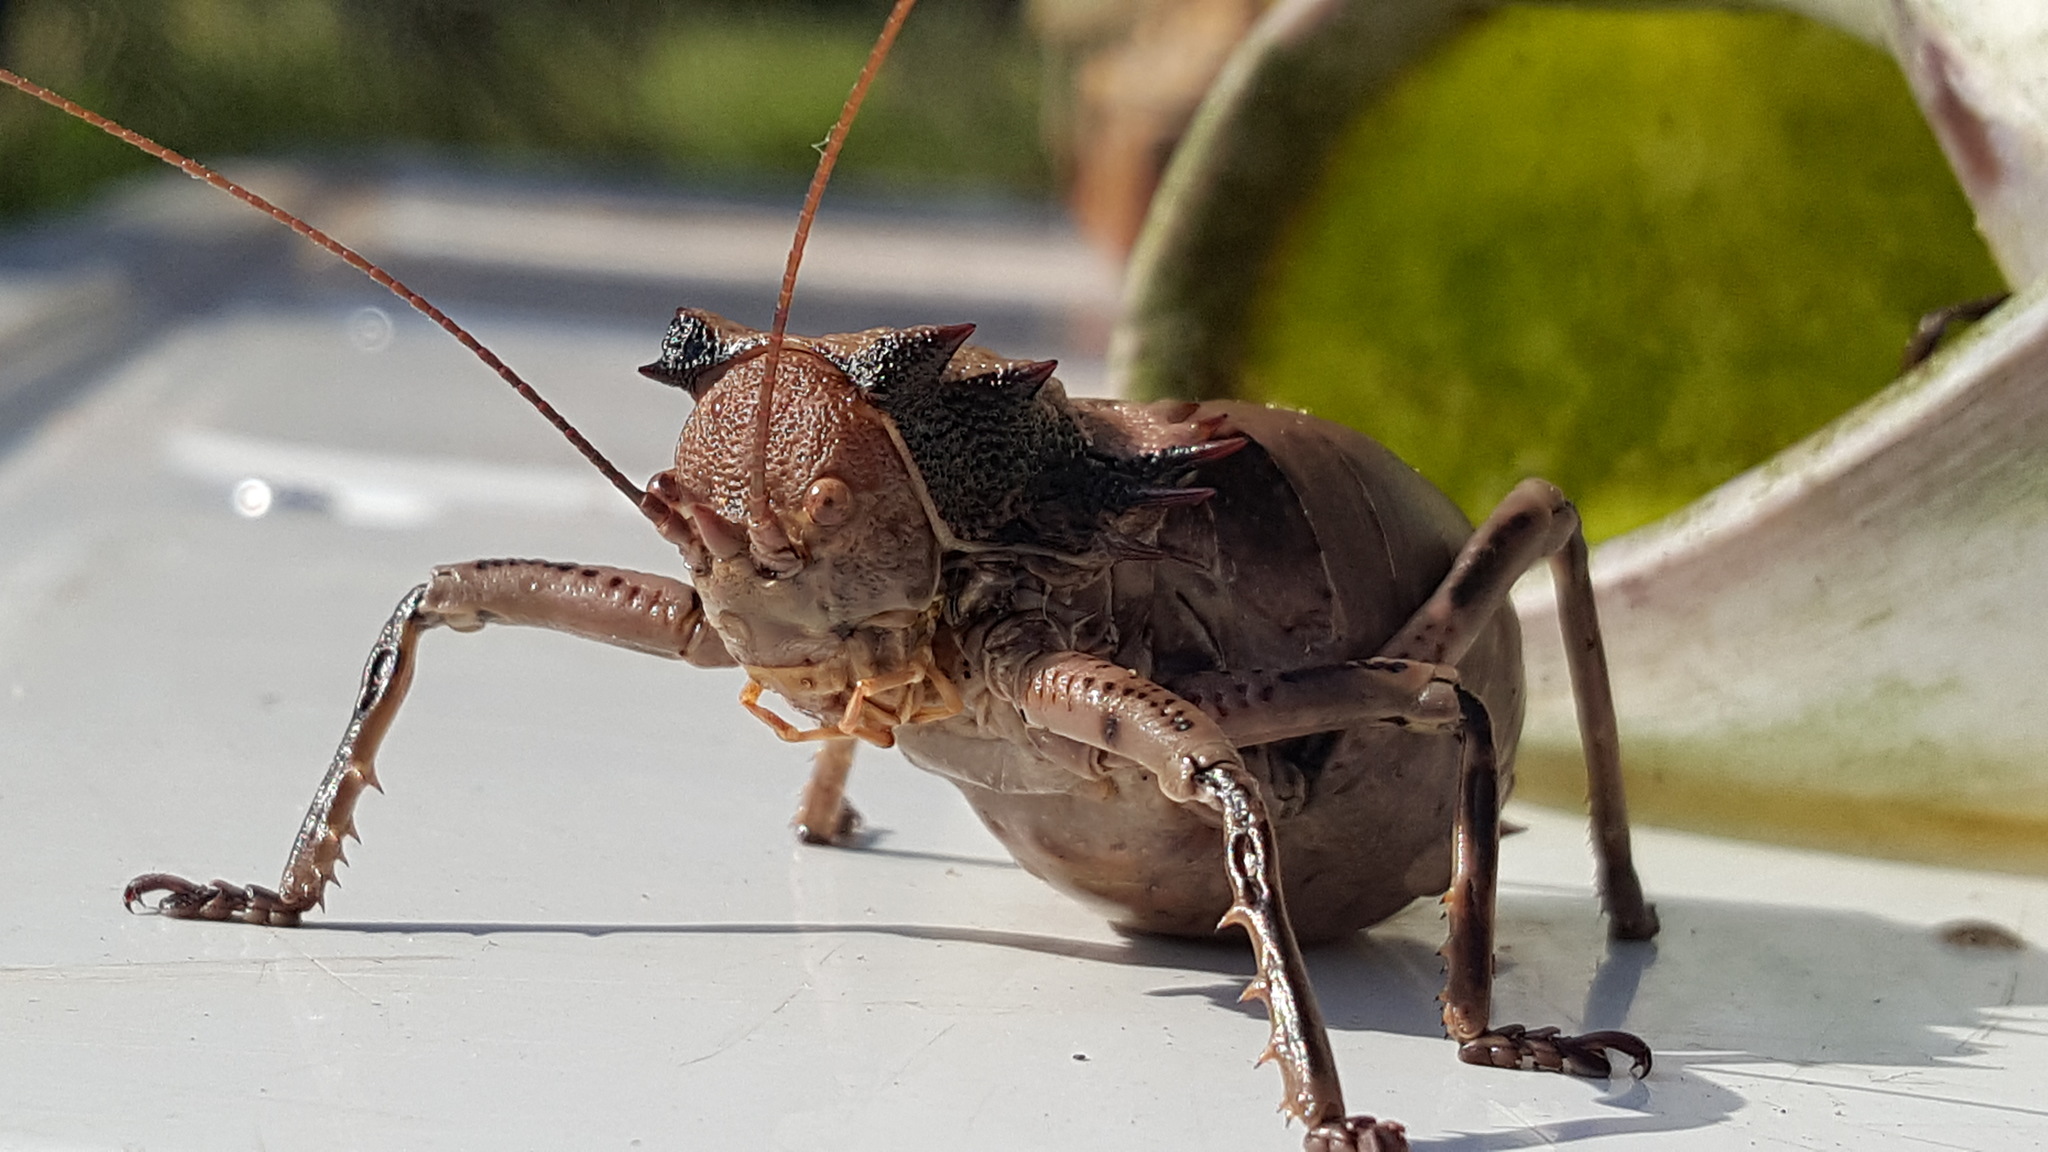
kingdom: Animalia
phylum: Arthropoda
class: Insecta
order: Orthoptera
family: Tettigoniidae
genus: Enyaliopsis
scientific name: Enyaliopsis transvaalensis
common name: Northern armoured katydid
